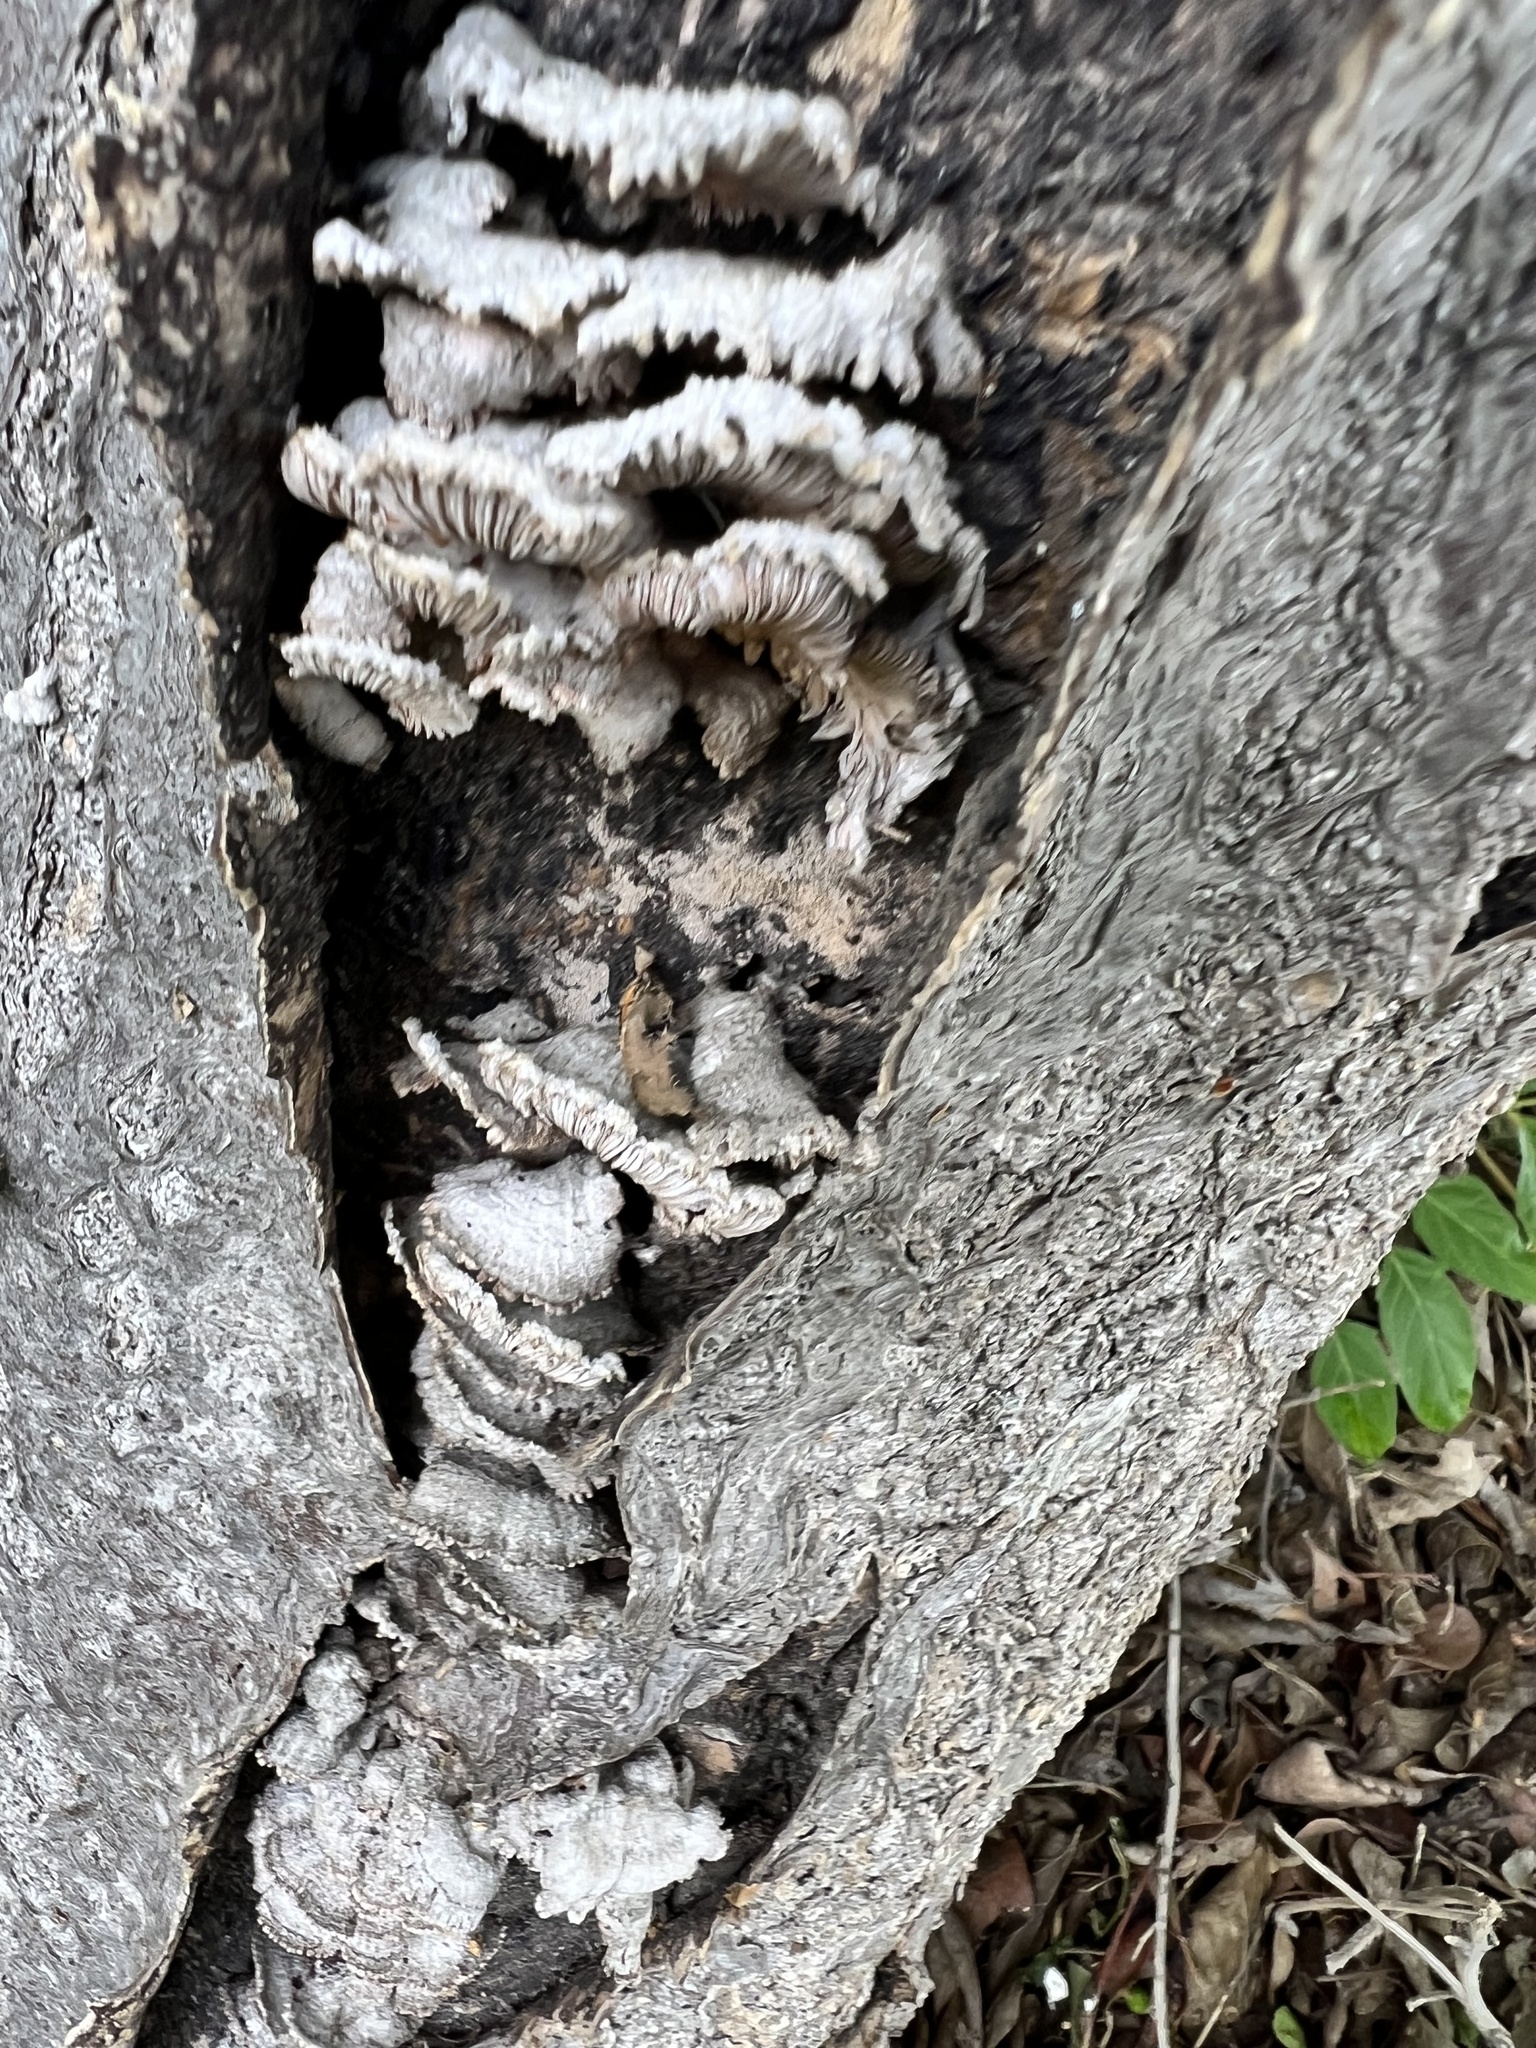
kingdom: Fungi
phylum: Basidiomycota
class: Agaricomycetes
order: Agaricales
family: Schizophyllaceae
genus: Schizophyllum
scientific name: Schizophyllum commune
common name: Common porecrust
